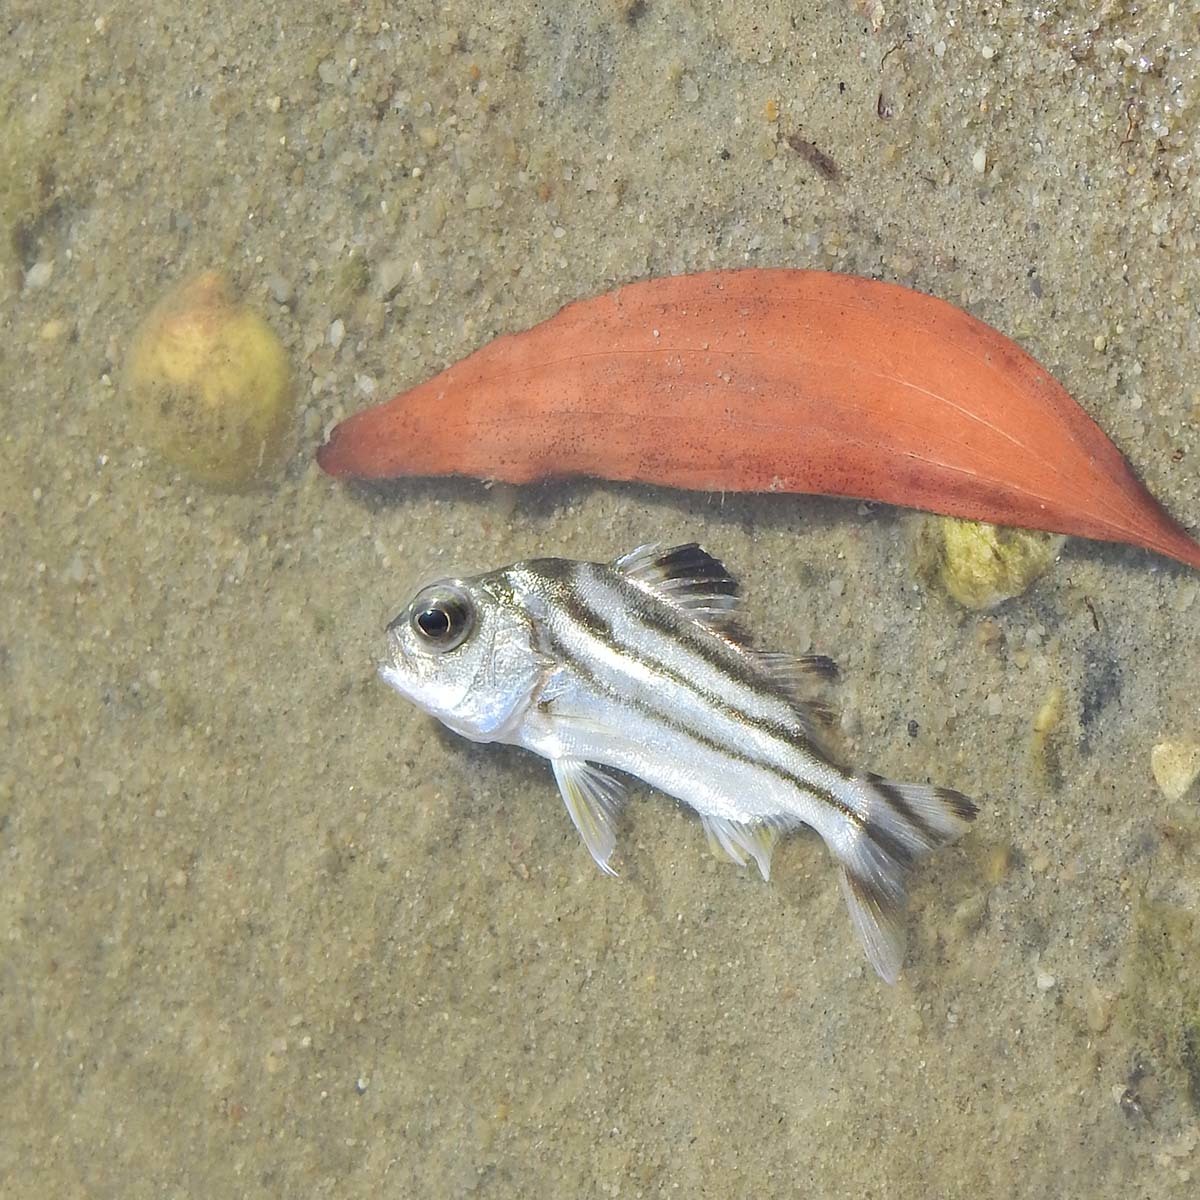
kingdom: Animalia
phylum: Chordata
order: Perciformes
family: Terapontidae
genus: Terapon
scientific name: Terapon jarbua
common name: Jarbua terapon
